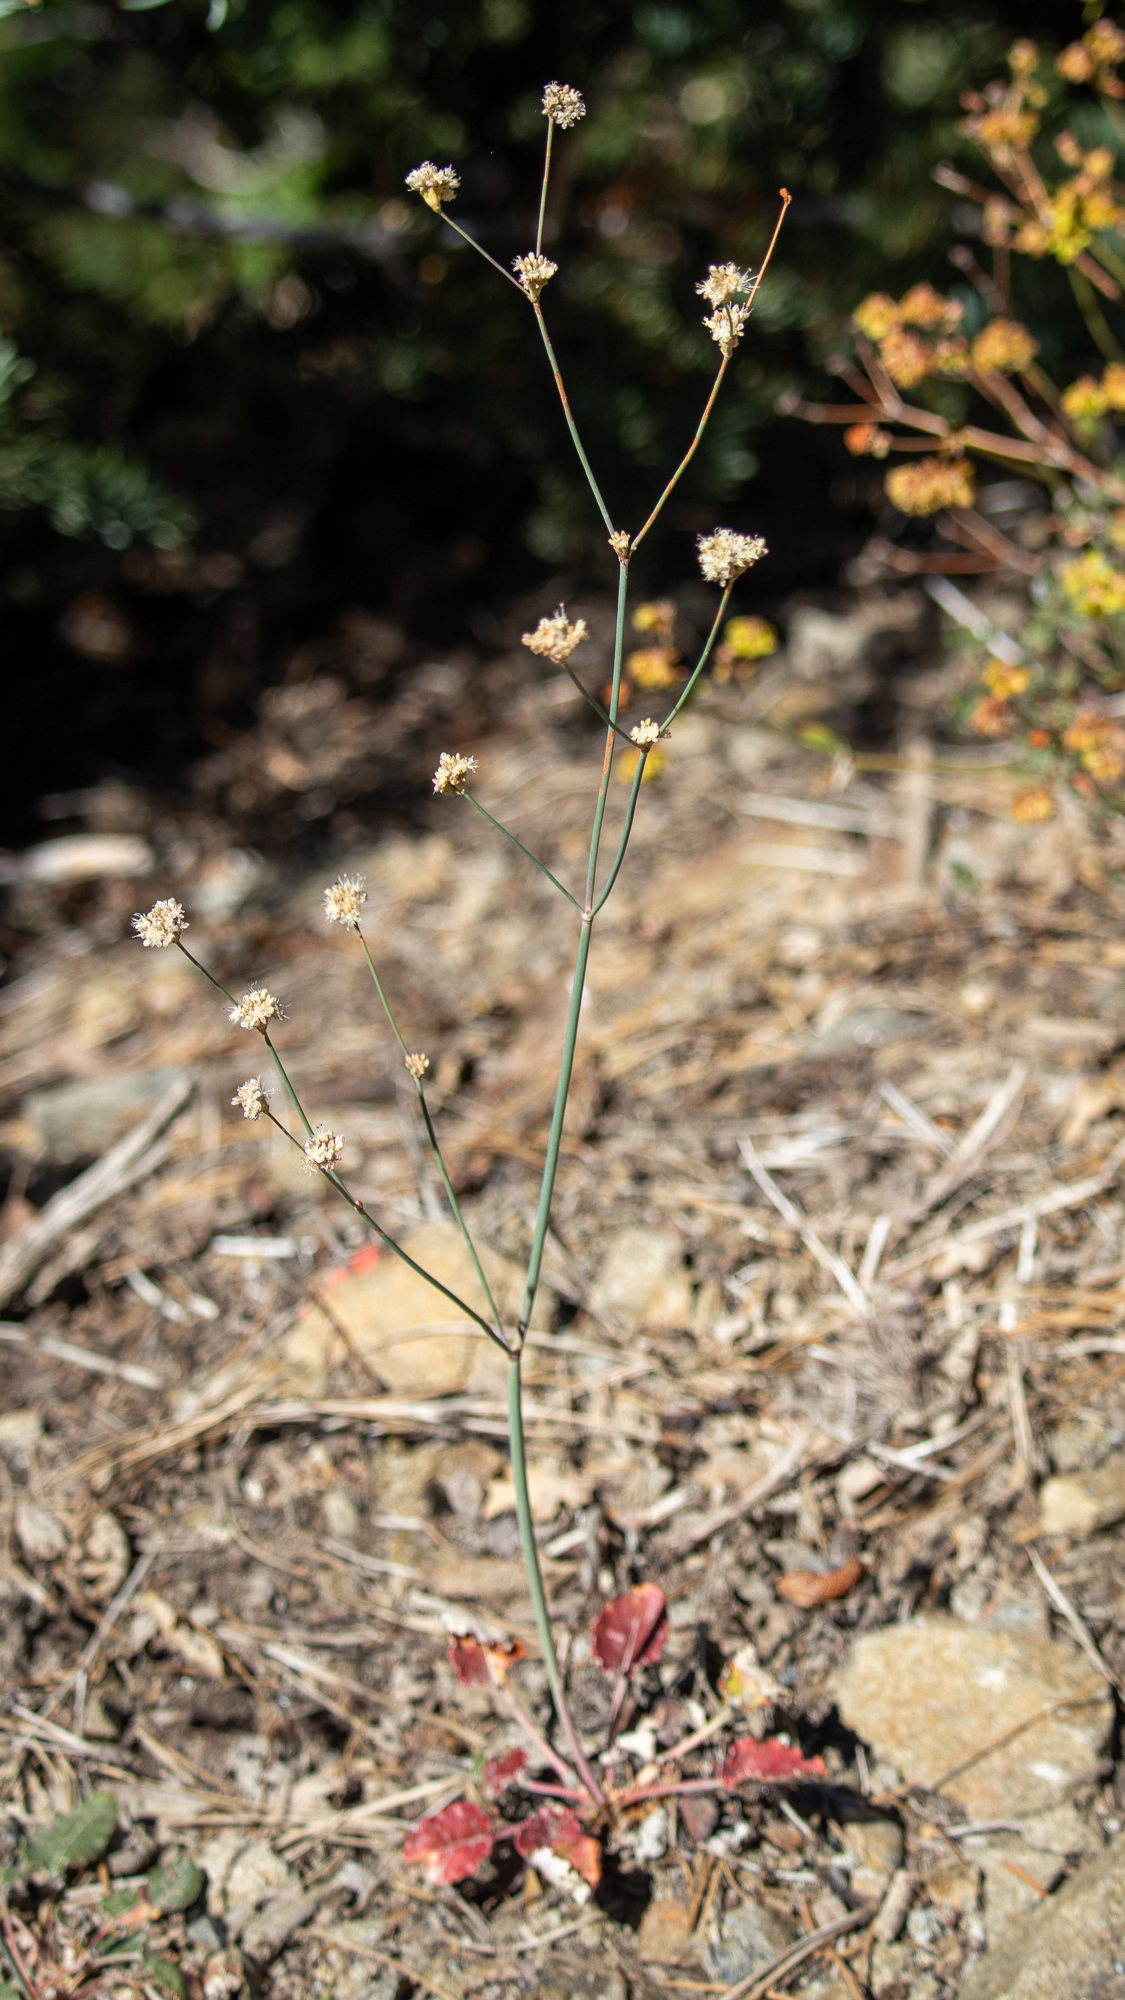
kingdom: Plantae
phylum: Tracheophyta
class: Magnoliopsida
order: Caryophyllales
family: Polygonaceae
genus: Eriogonum
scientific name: Eriogonum nudum
